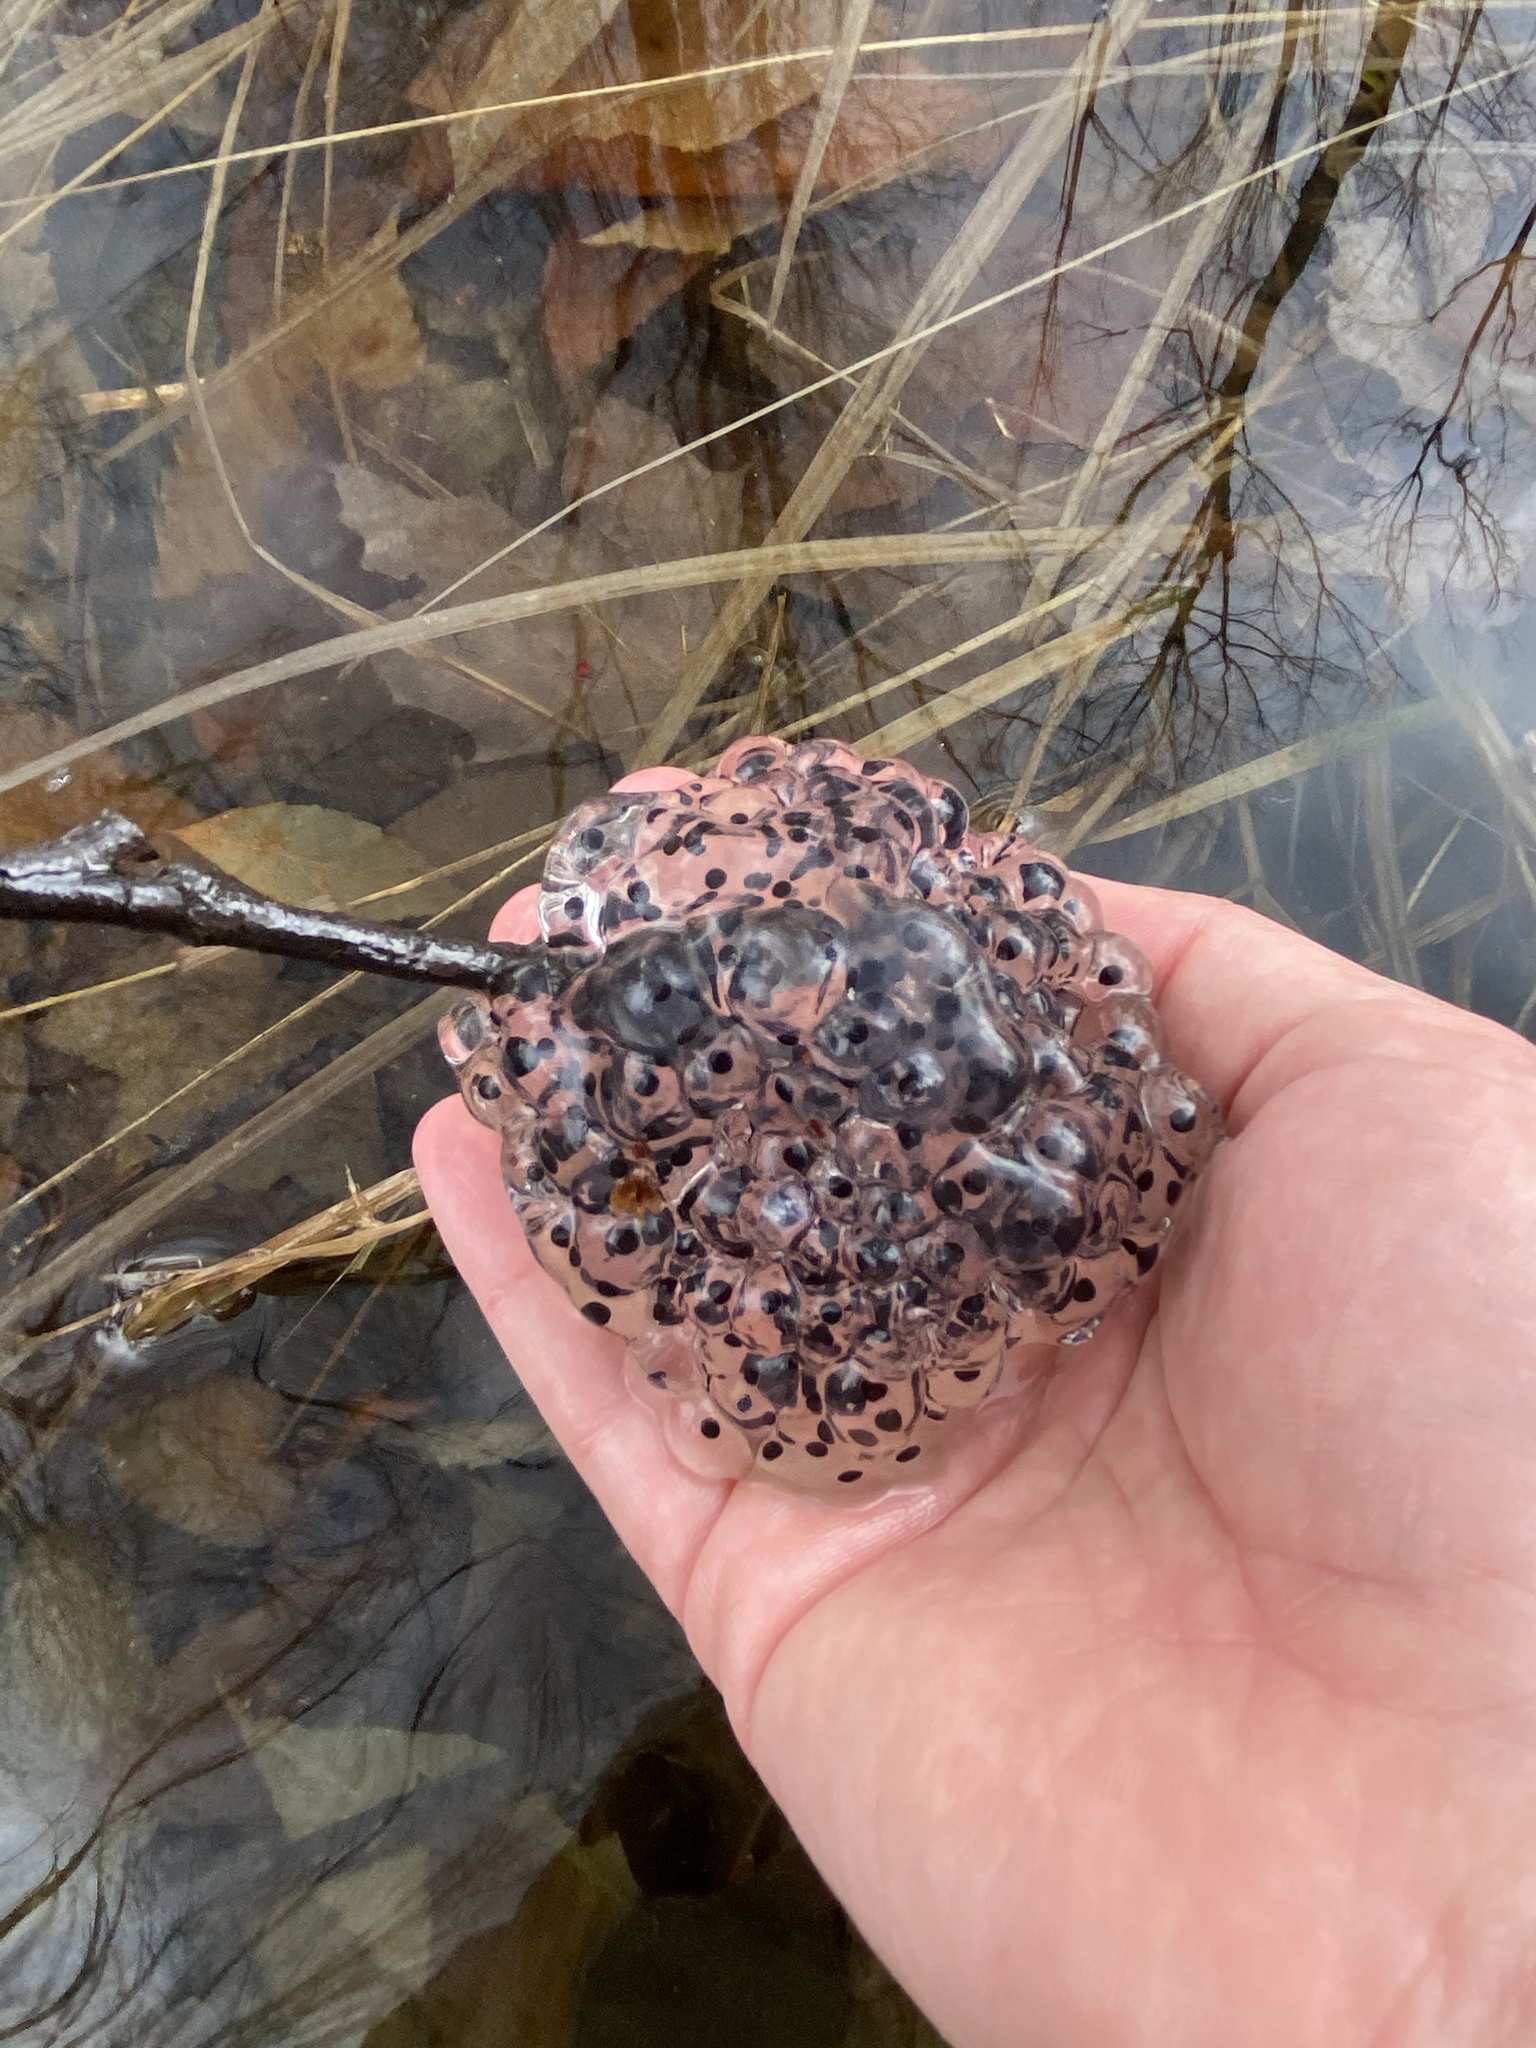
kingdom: Animalia
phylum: Chordata
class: Amphibia
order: Anura
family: Ranidae
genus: Lithobates
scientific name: Lithobates sylvaticus
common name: Wood frog
